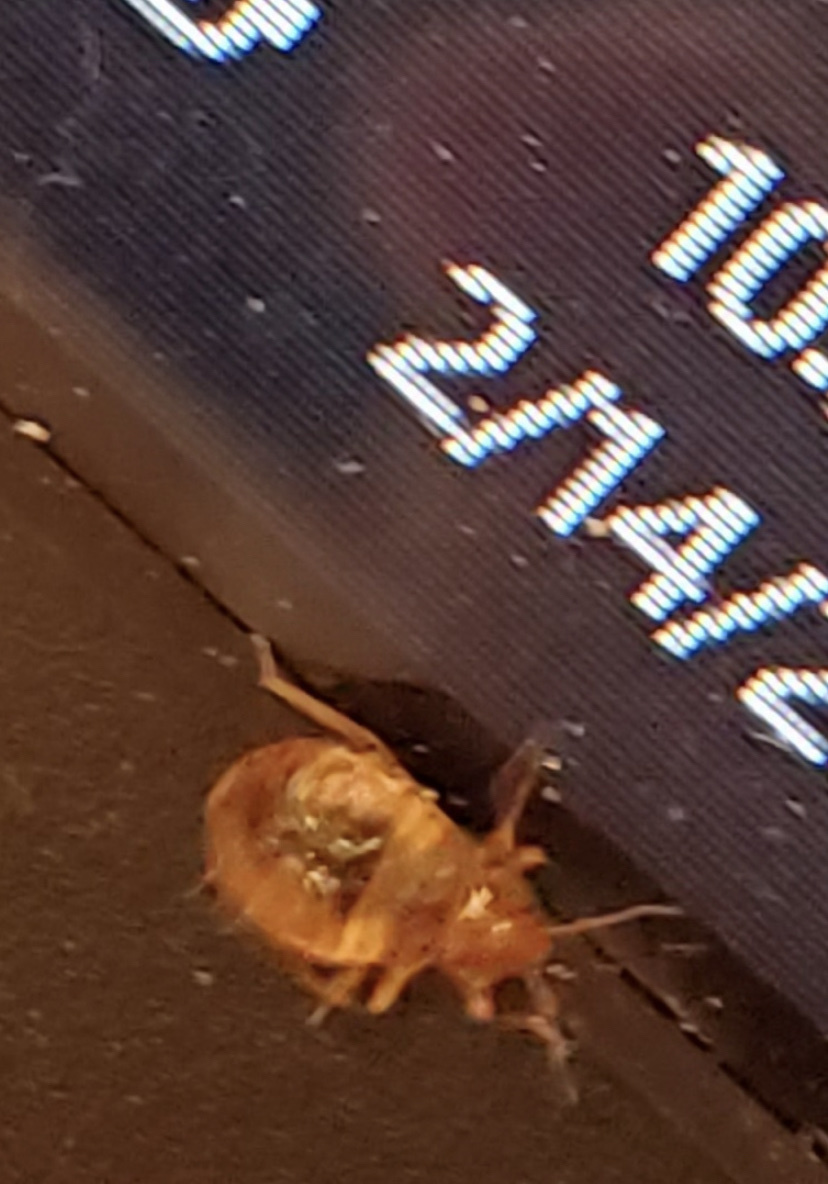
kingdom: Animalia
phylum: Arthropoda
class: Insecta
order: Hemiptera
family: Cimicidae
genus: Cimex
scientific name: Cimex lectularius
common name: Bed bug
